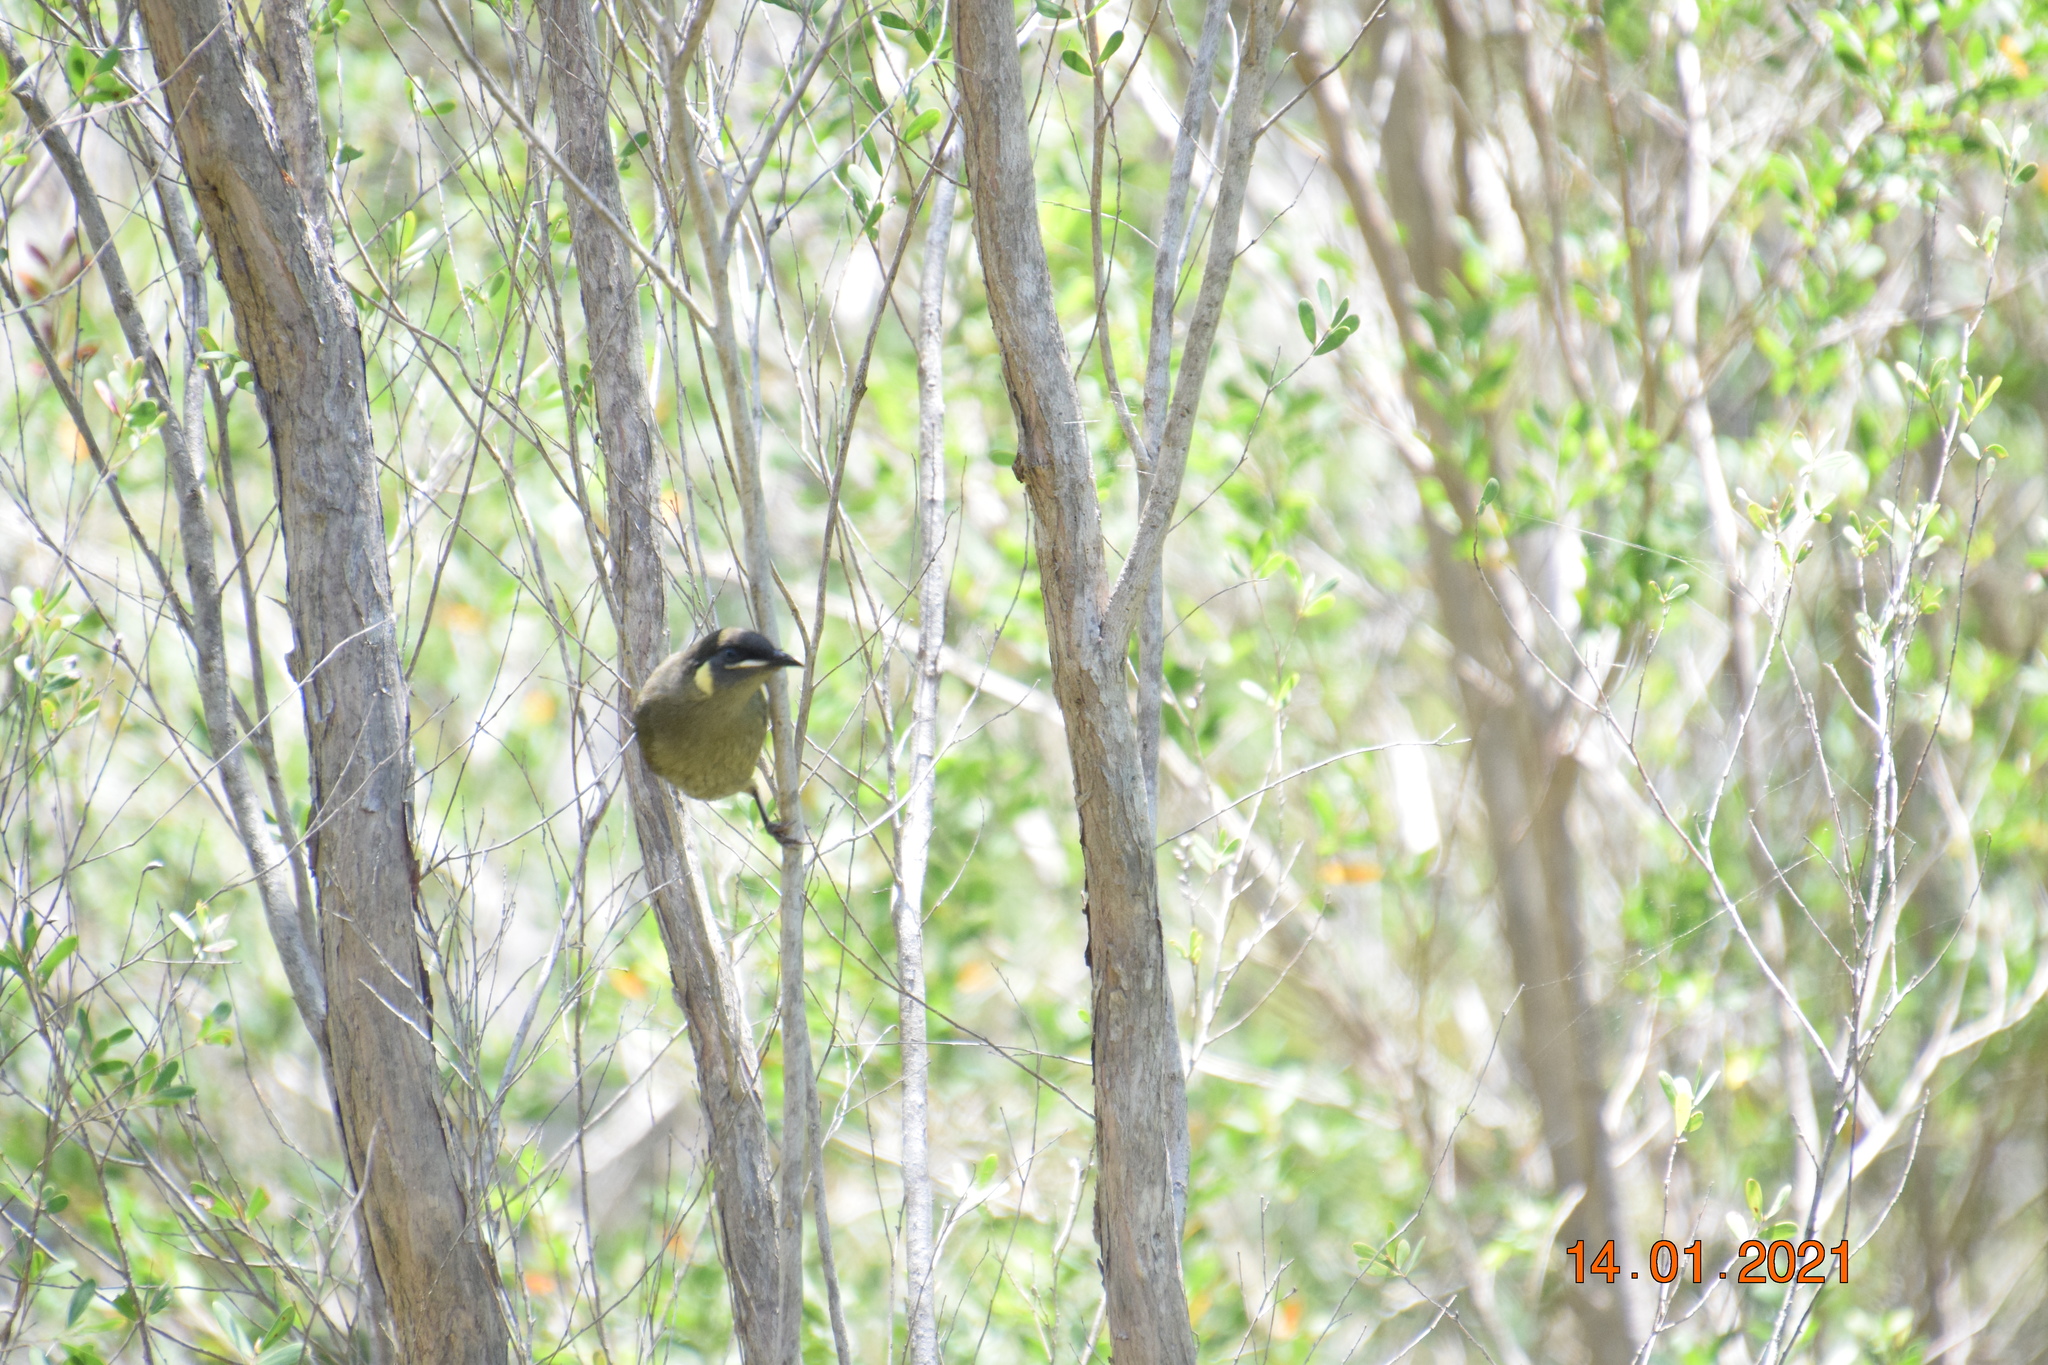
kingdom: Animalia
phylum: Chordata
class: Aves
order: Passeriformes
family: Meliphagidae
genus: Meliphaga
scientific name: Meliphaga lewinii
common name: Lewin's honeyeater
